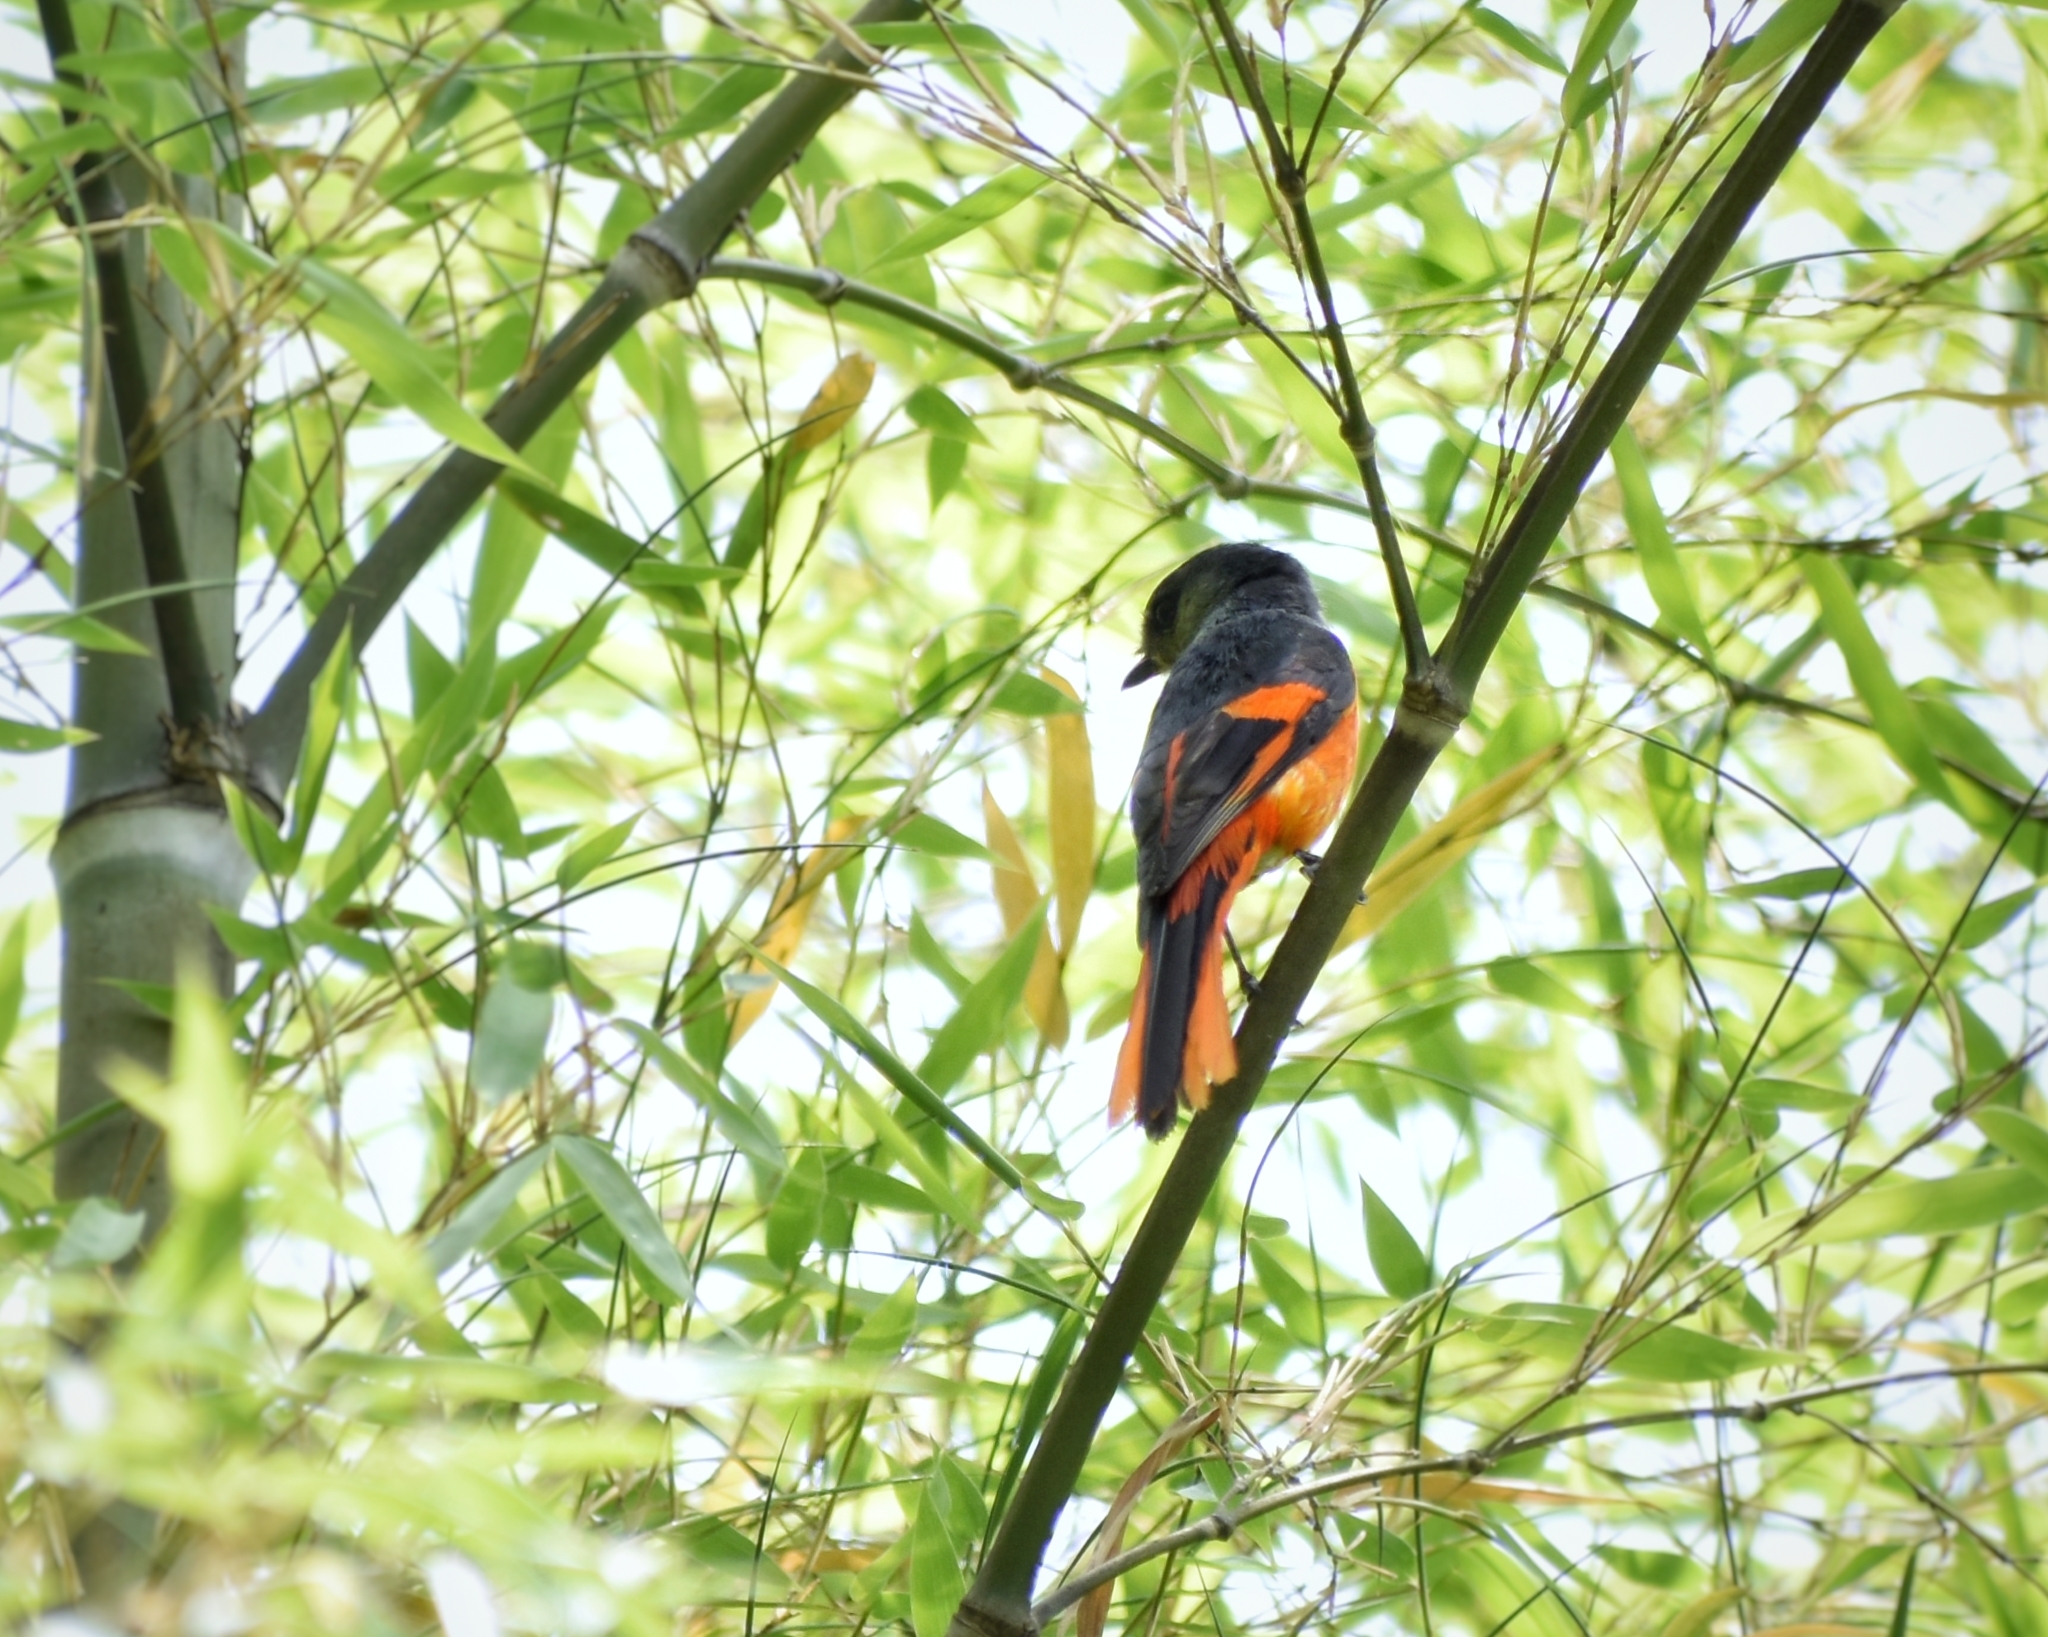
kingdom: Animalia
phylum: Chordata
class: Aves
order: Passeriformes
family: Campephagidae
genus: Pericrocotus
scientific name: Pericrocotus solaris
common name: Grey-chinned minivet
